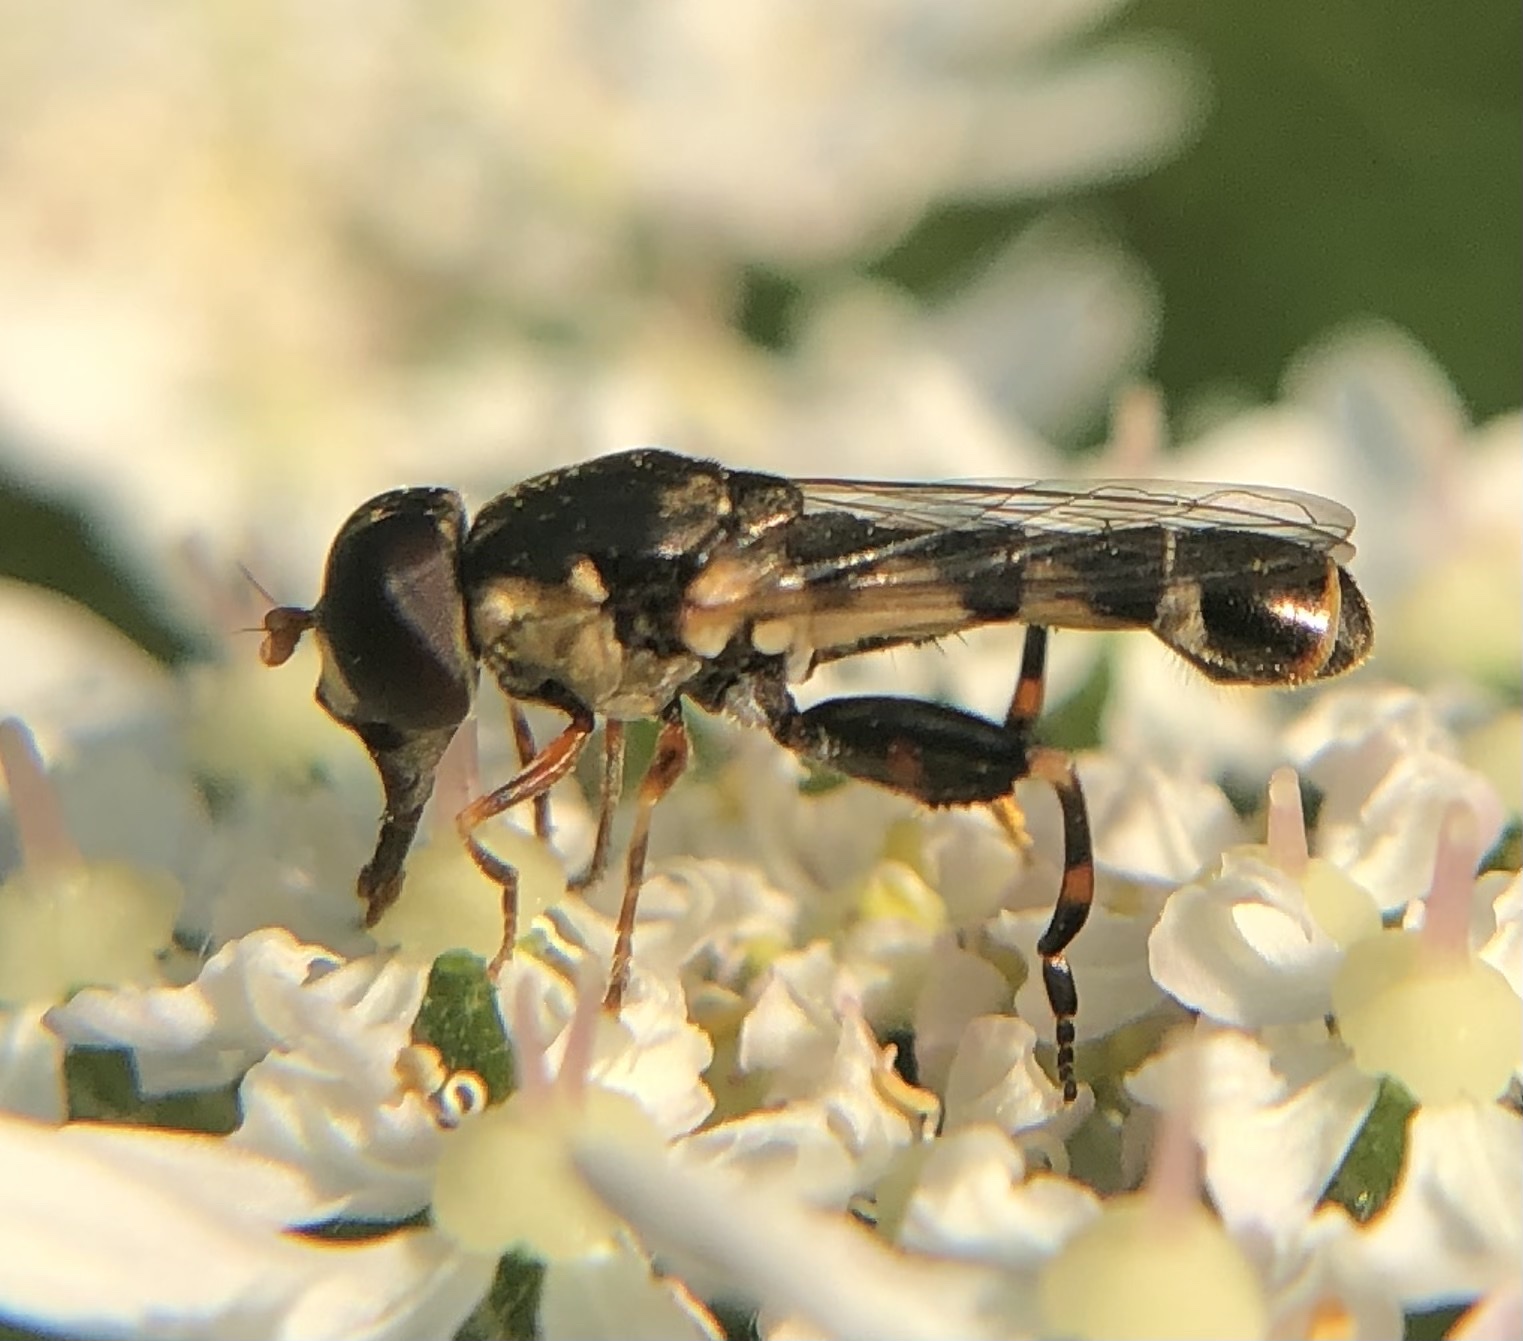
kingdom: Animalia
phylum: Arthropoda
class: Insecta
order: Diptera
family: Syrphidae
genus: Syritta
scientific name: Syritta pipiens
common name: Hover fly
